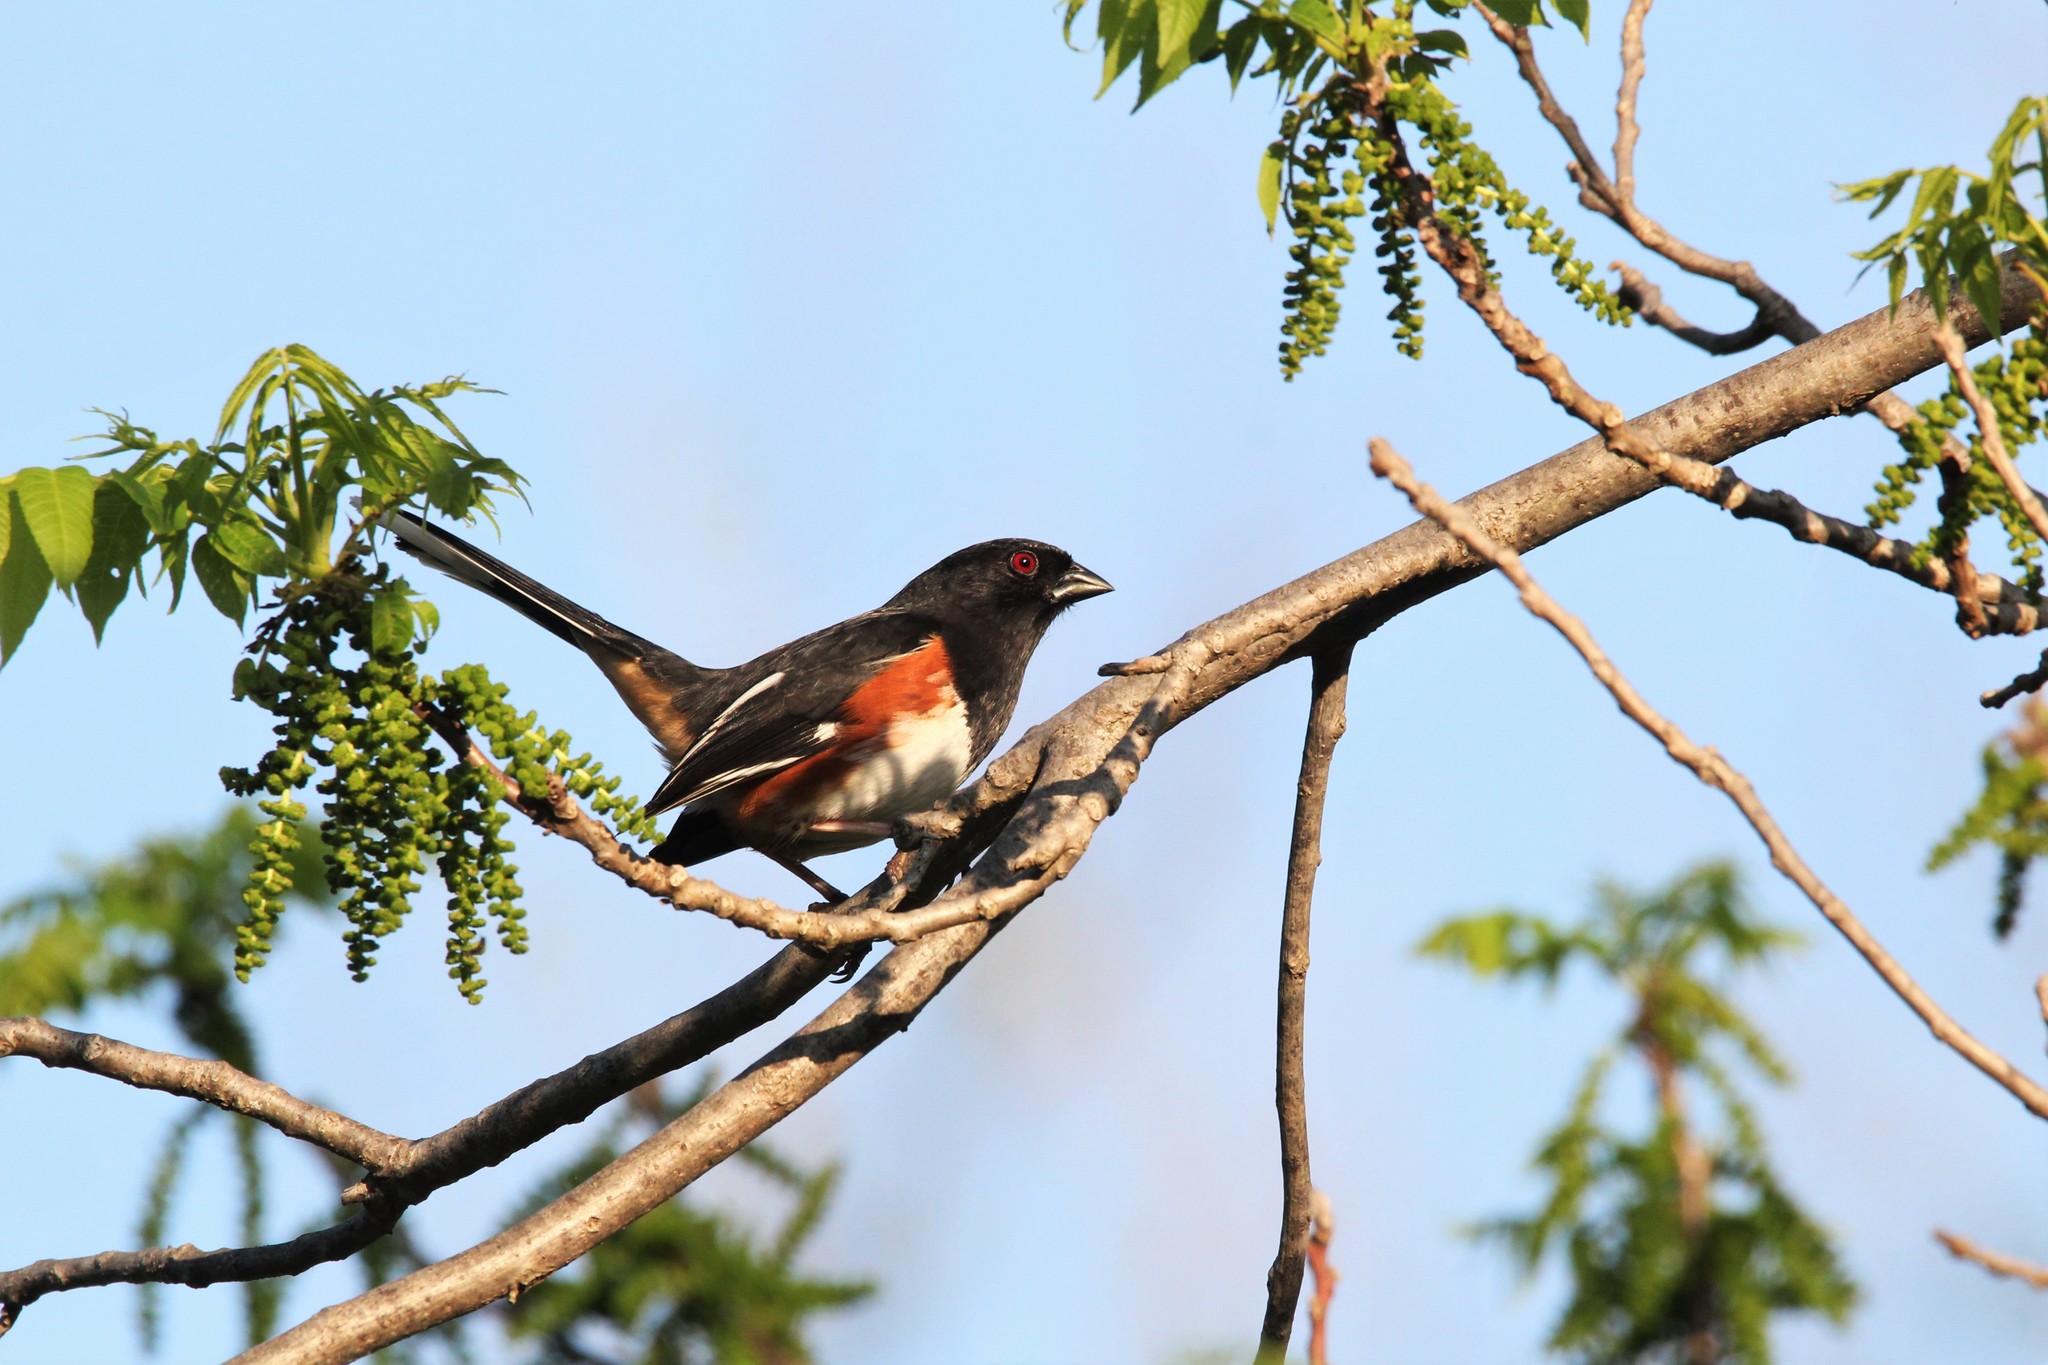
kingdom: Animalia
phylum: Chordata
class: Aves
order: Passeriformes
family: Passerellidae
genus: Pipilo
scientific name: Pipilo erythrophthalmus
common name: Eastern towhee
